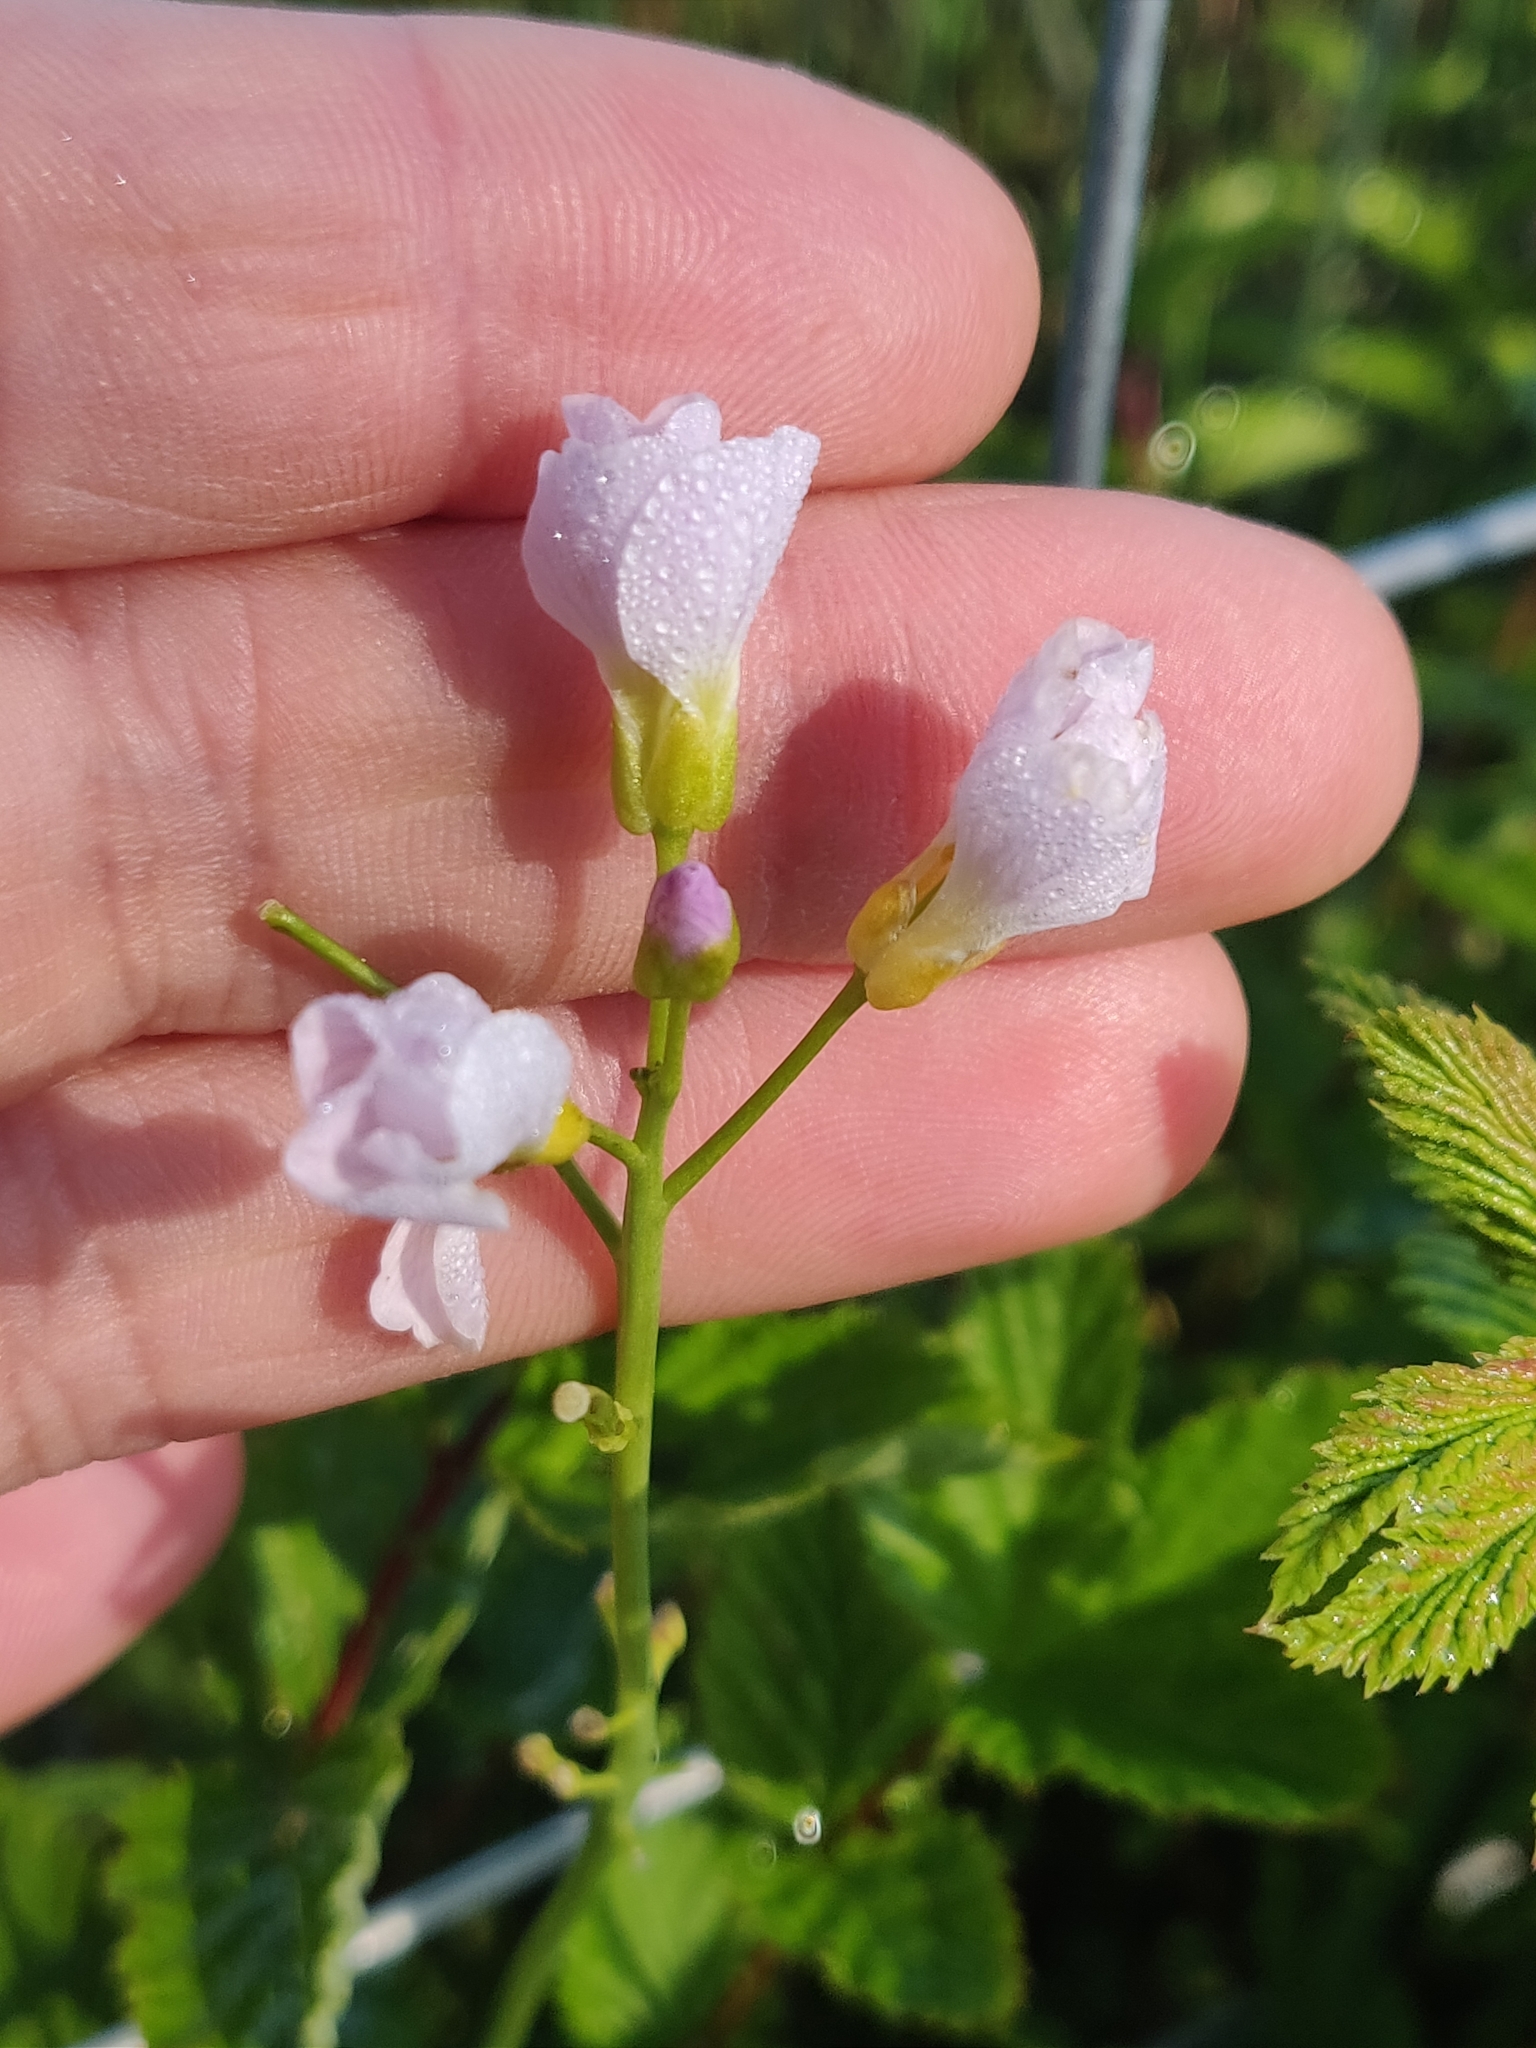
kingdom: Plantae
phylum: Tracheophyta
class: Magnoliopsida
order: Brassicales
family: Brassicaceae
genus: Cardamine
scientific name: Cardamine pratensis
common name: Cuckoo flower
